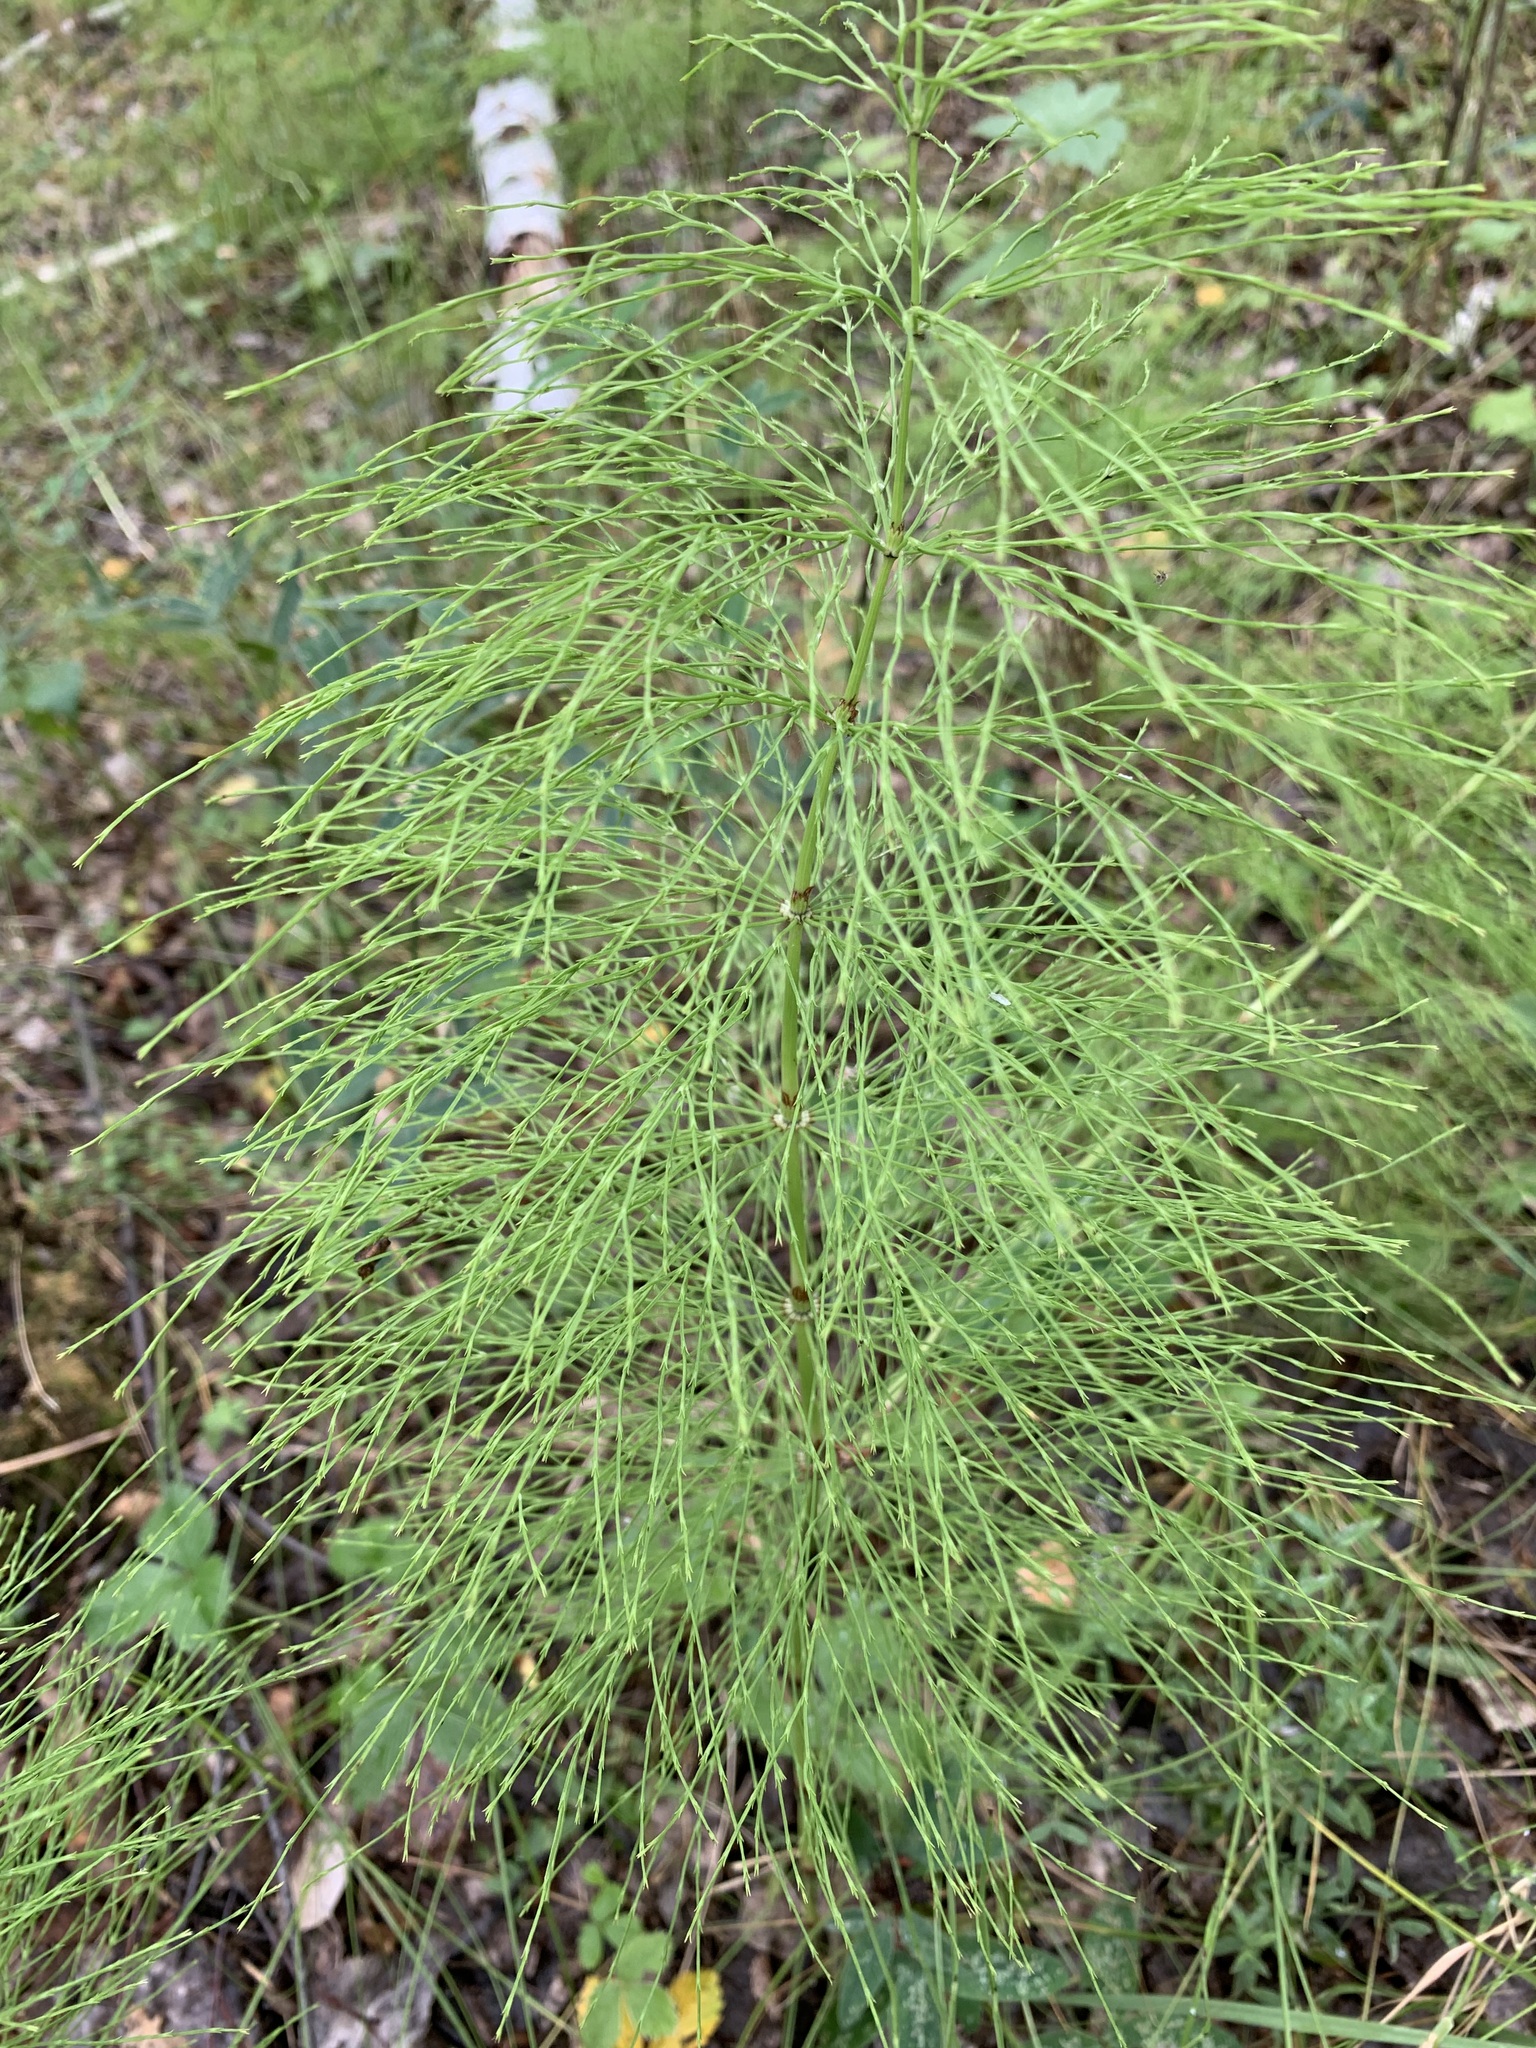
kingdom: Plantae
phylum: Tracheophyta
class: Polypodiopsida
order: Equisetales
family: Equisetaceae
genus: Equisetum
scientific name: Equisetum sylvaticum
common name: Wood horsetail
